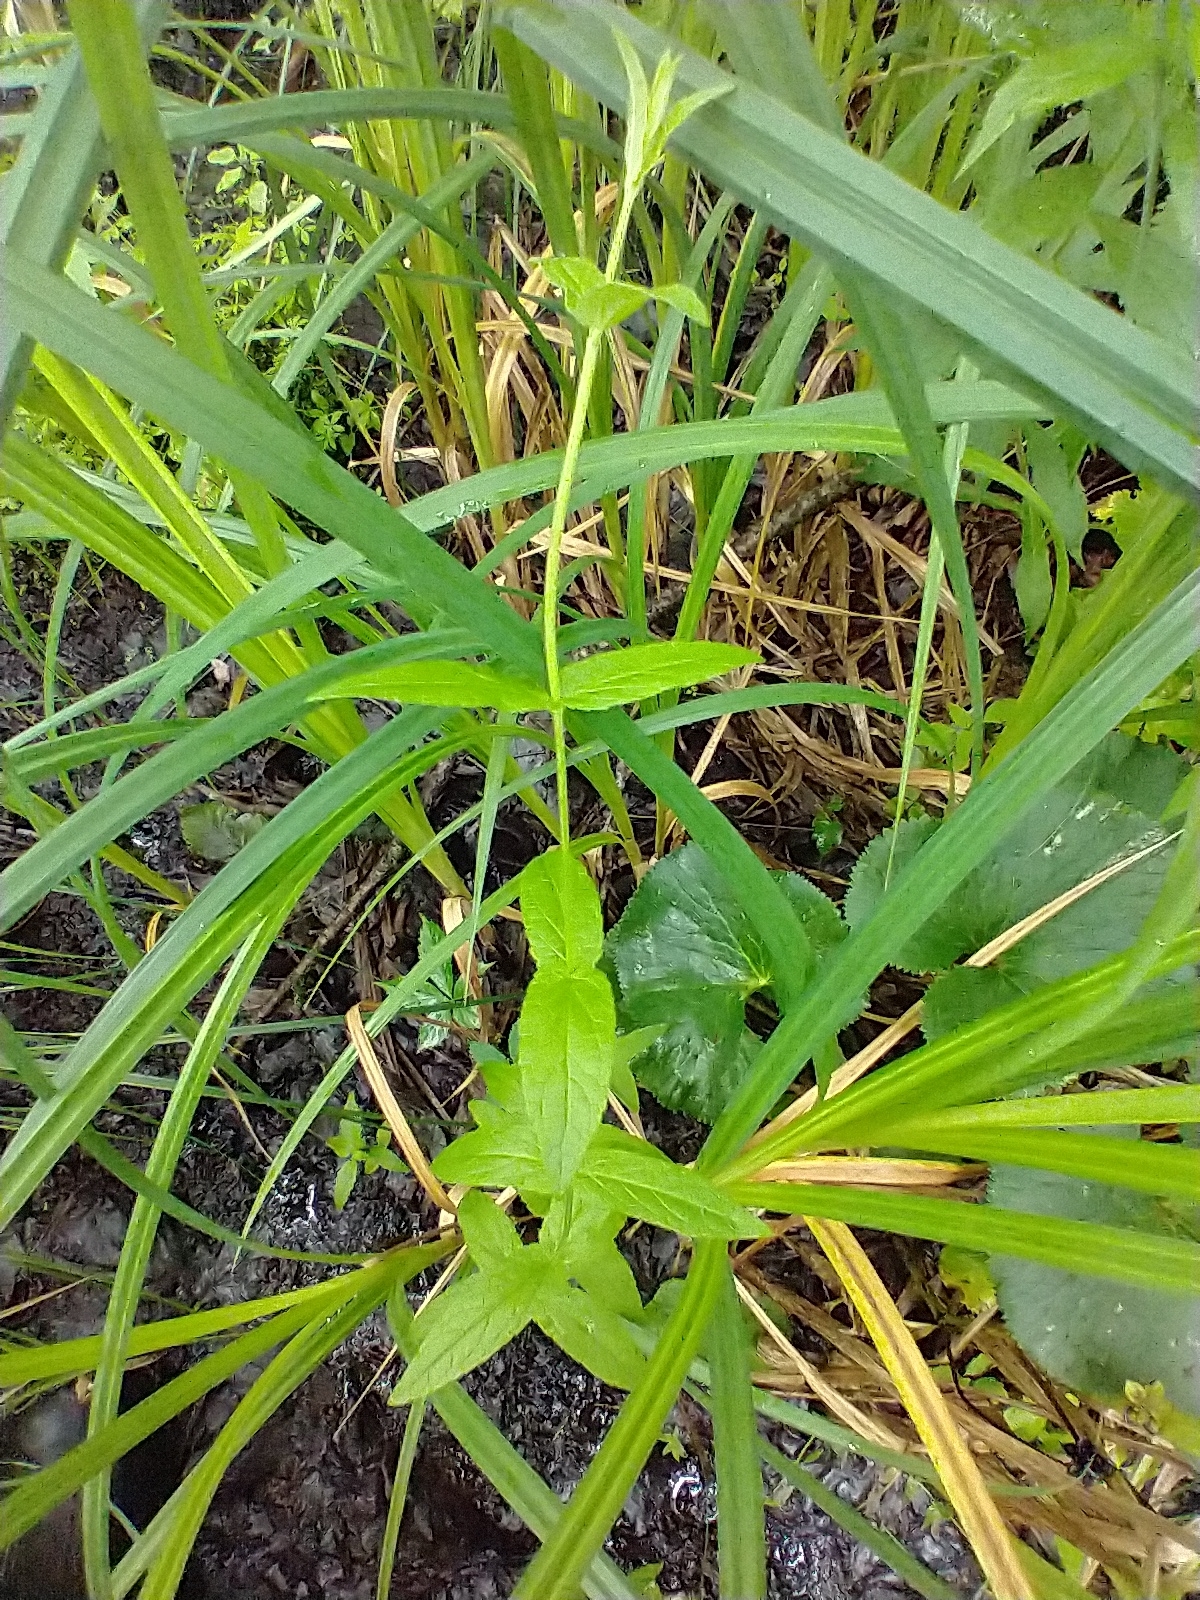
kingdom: Plantae
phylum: Tracheophyta
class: Magnoliopsida
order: Lamiales
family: Lamiaceae
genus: Scutellaria
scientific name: Scutellaria galericulata
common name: Skullcap
